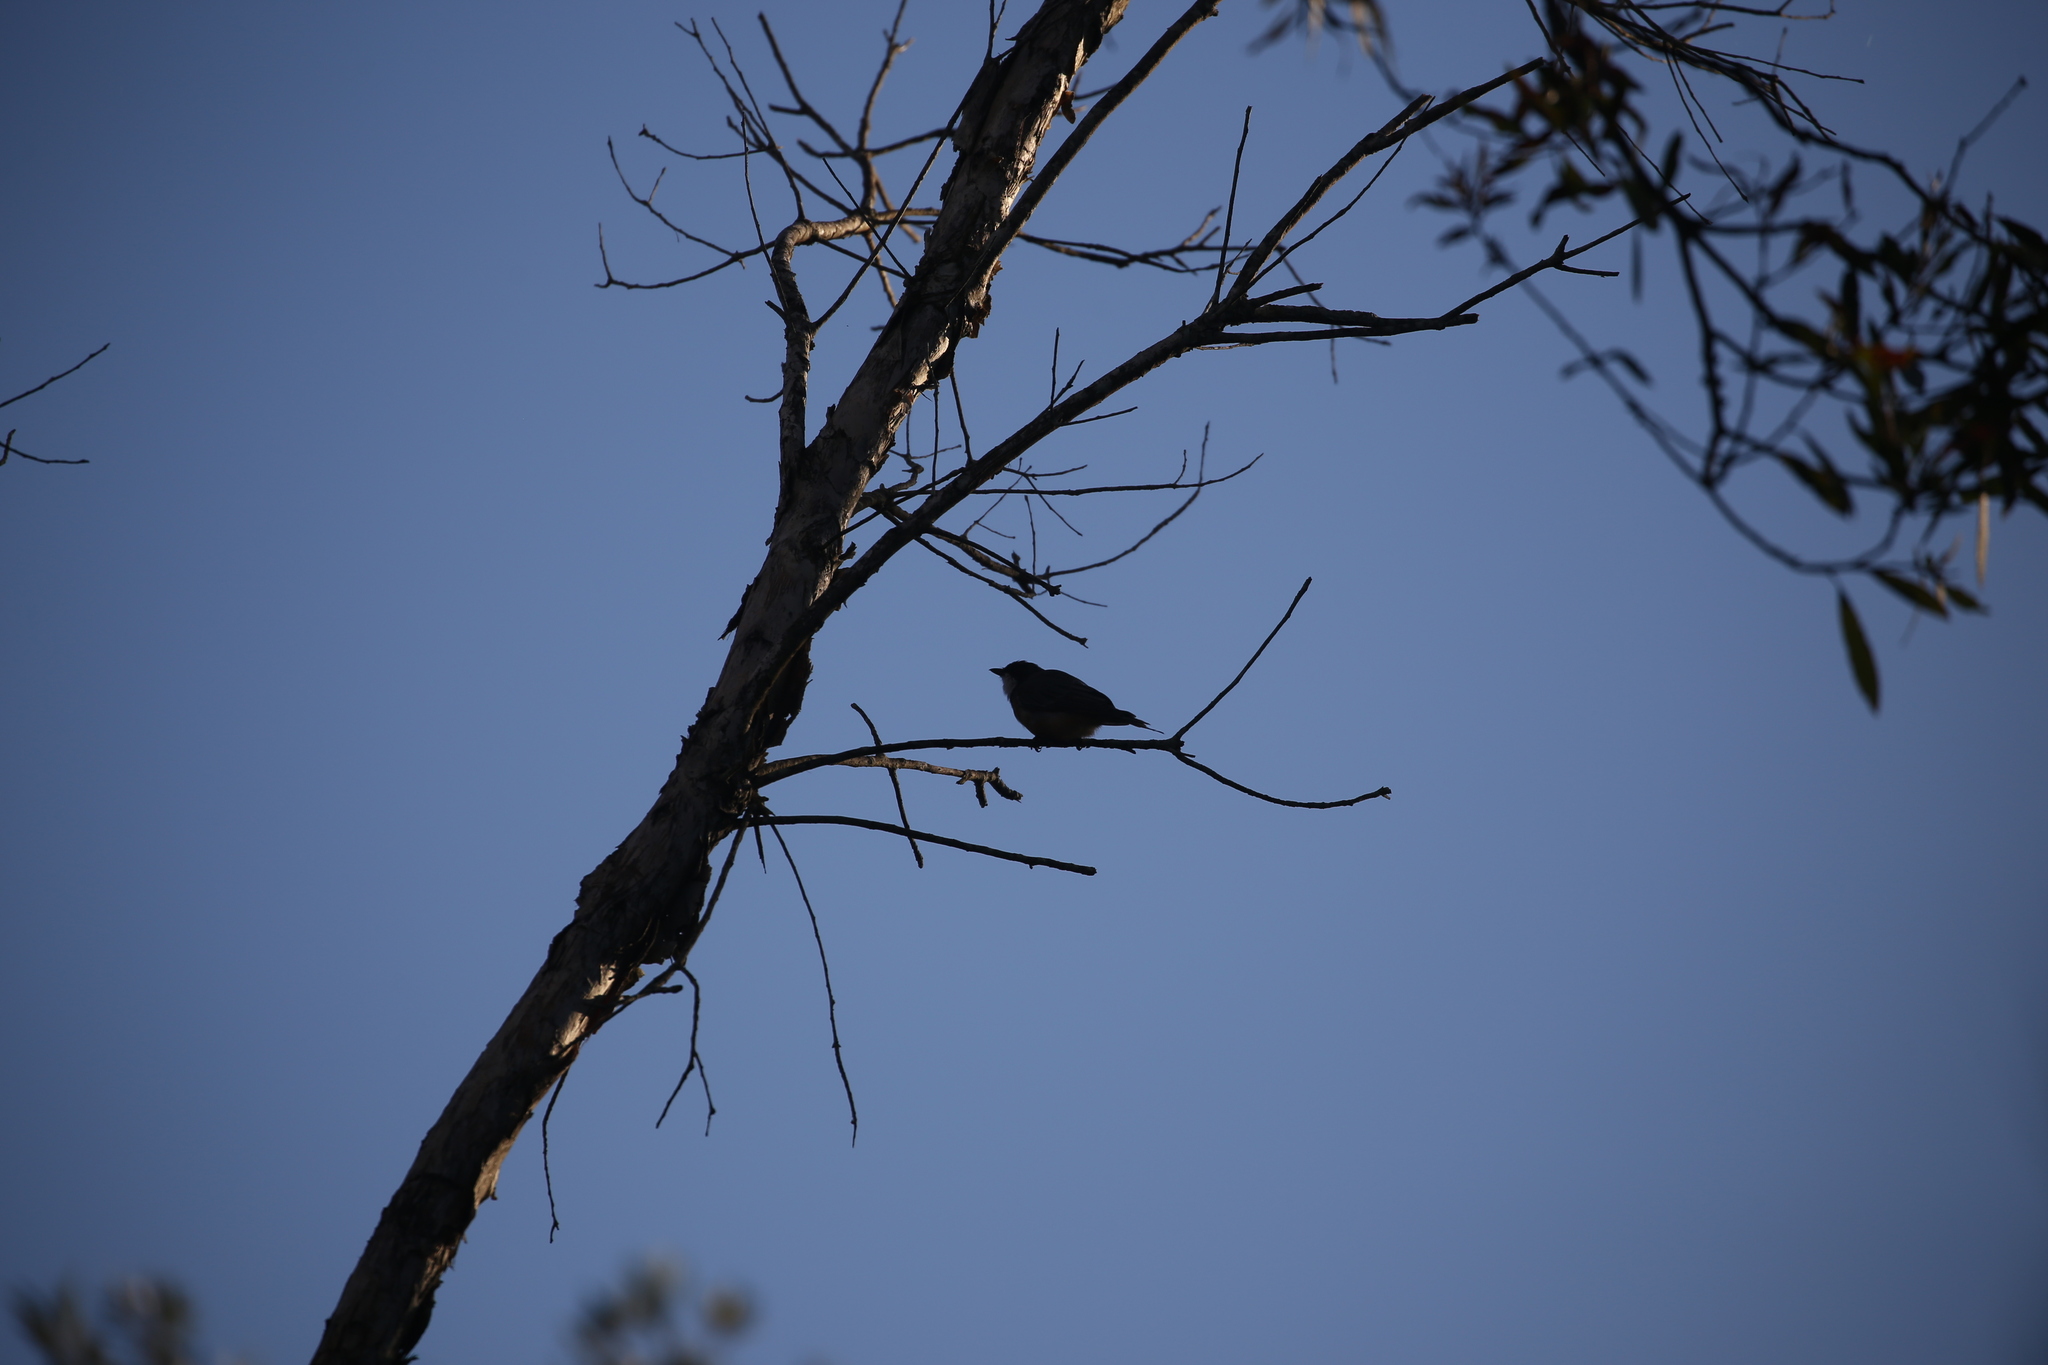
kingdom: Animalia
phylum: Chordata
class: Aves
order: Passeriformes
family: Pachycephalidae
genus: Pachycephala
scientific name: Pachycephala rufiventris
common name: Rufous whistler
